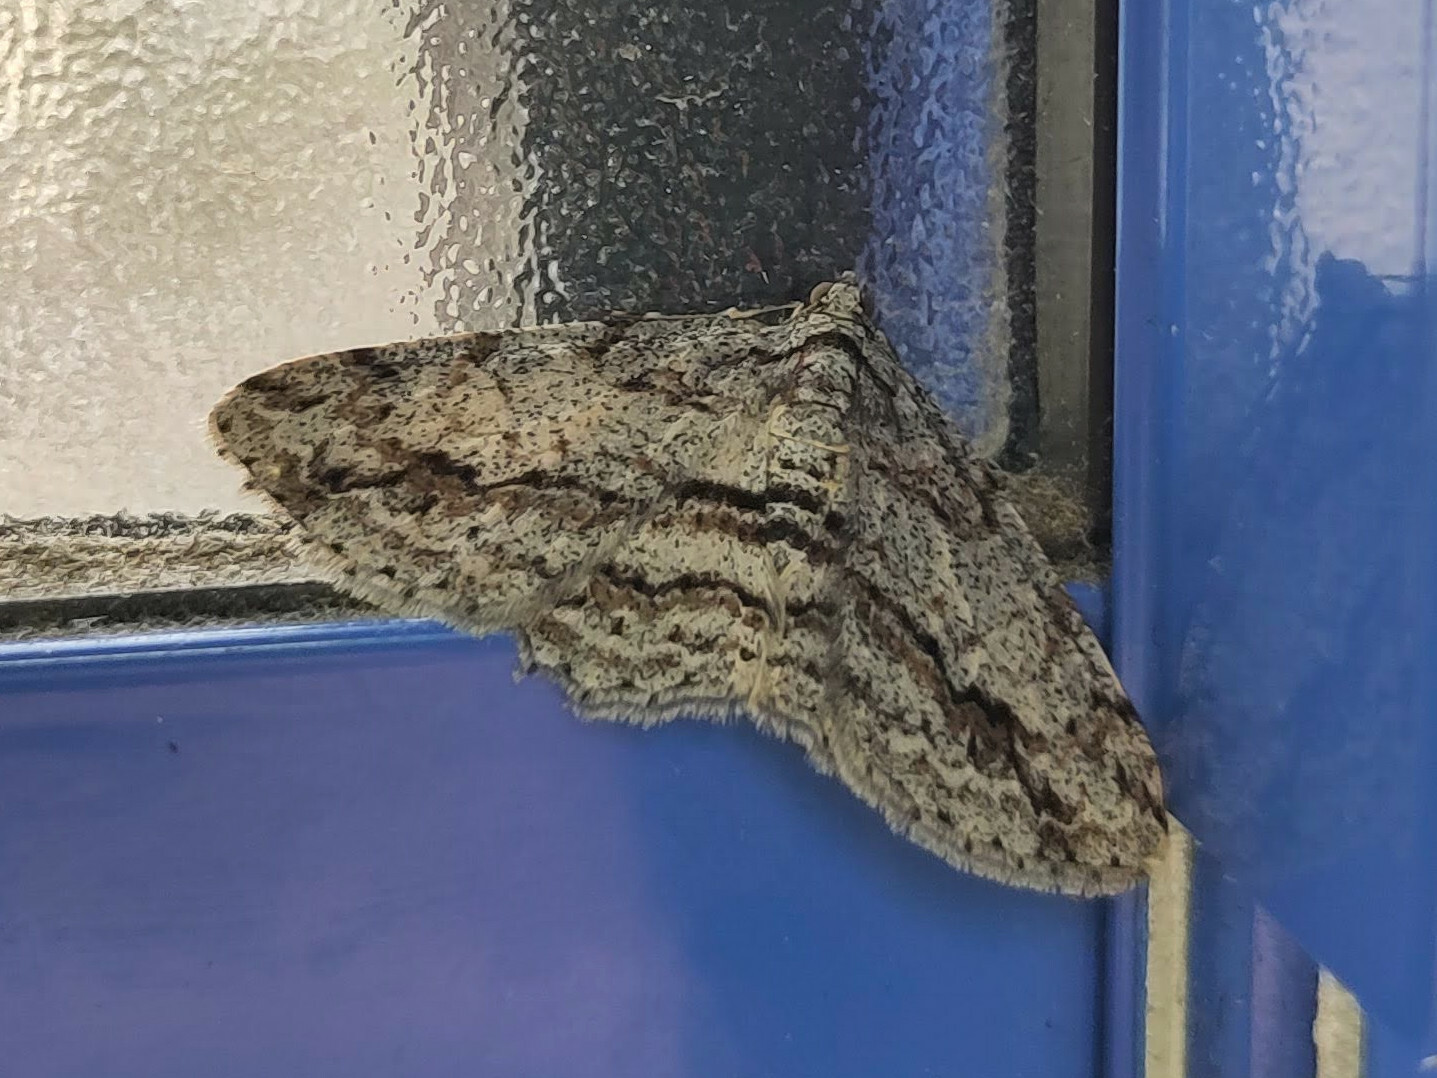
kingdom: Animalia
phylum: Arthropoda
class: Insecta
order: Lepidoptera
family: Geometridae
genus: Didymoctenia
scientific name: Didymoctenia exsuperata
